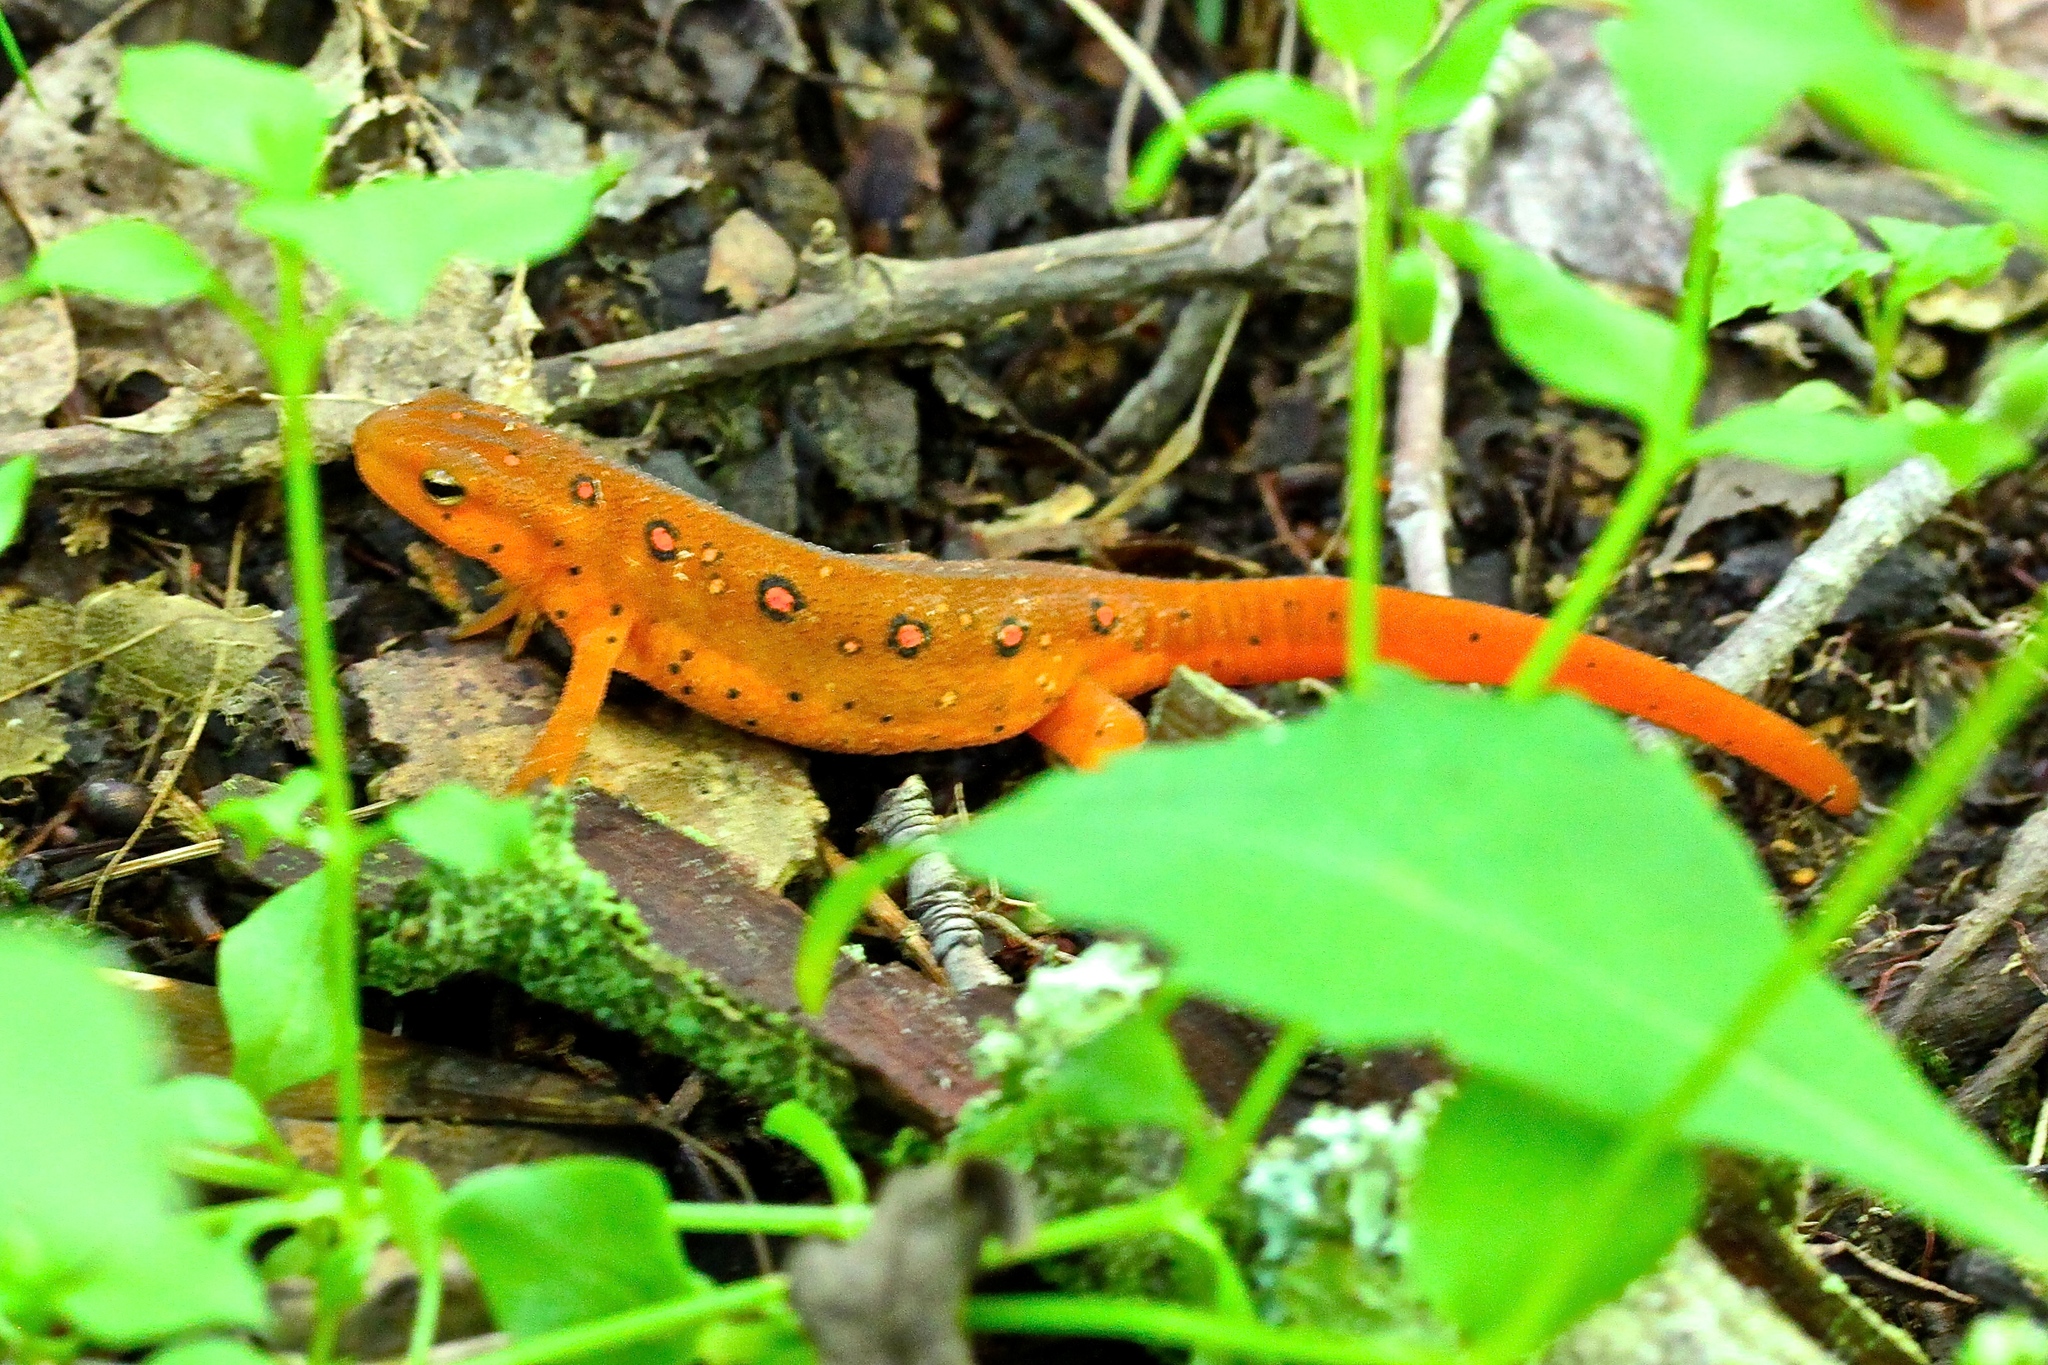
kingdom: Animalia
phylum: Chordata
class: Amphibia
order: Caudata
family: Salamandridae
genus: Notophthalmus
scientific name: Notophthalmus viridescens
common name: Eastern newt
